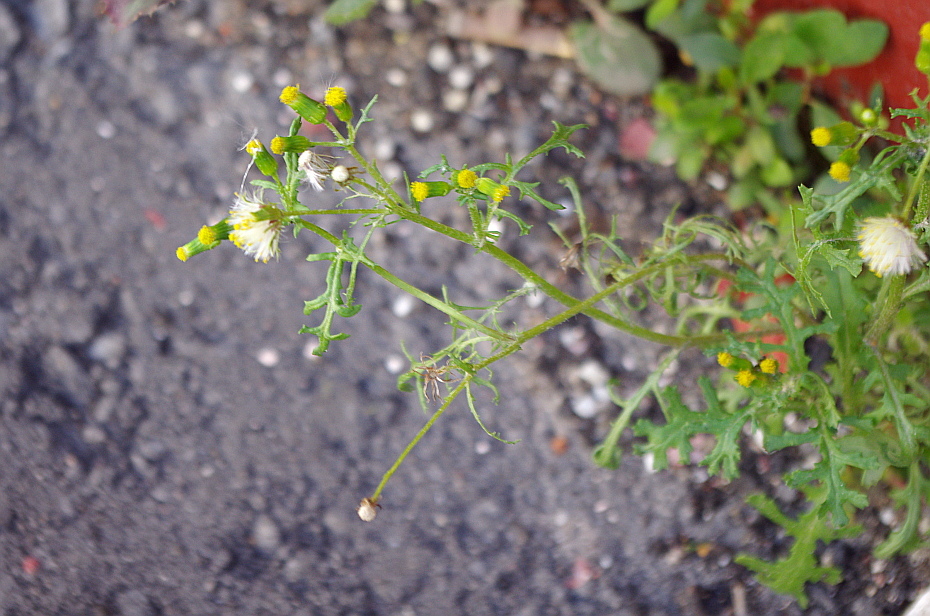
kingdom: Plantae
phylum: Tracheophyta
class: Magnoliopsida
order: Asterales
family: Asteraceae
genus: Senecio
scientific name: Senecio vulgaris
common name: Old-man-in-the-spring
